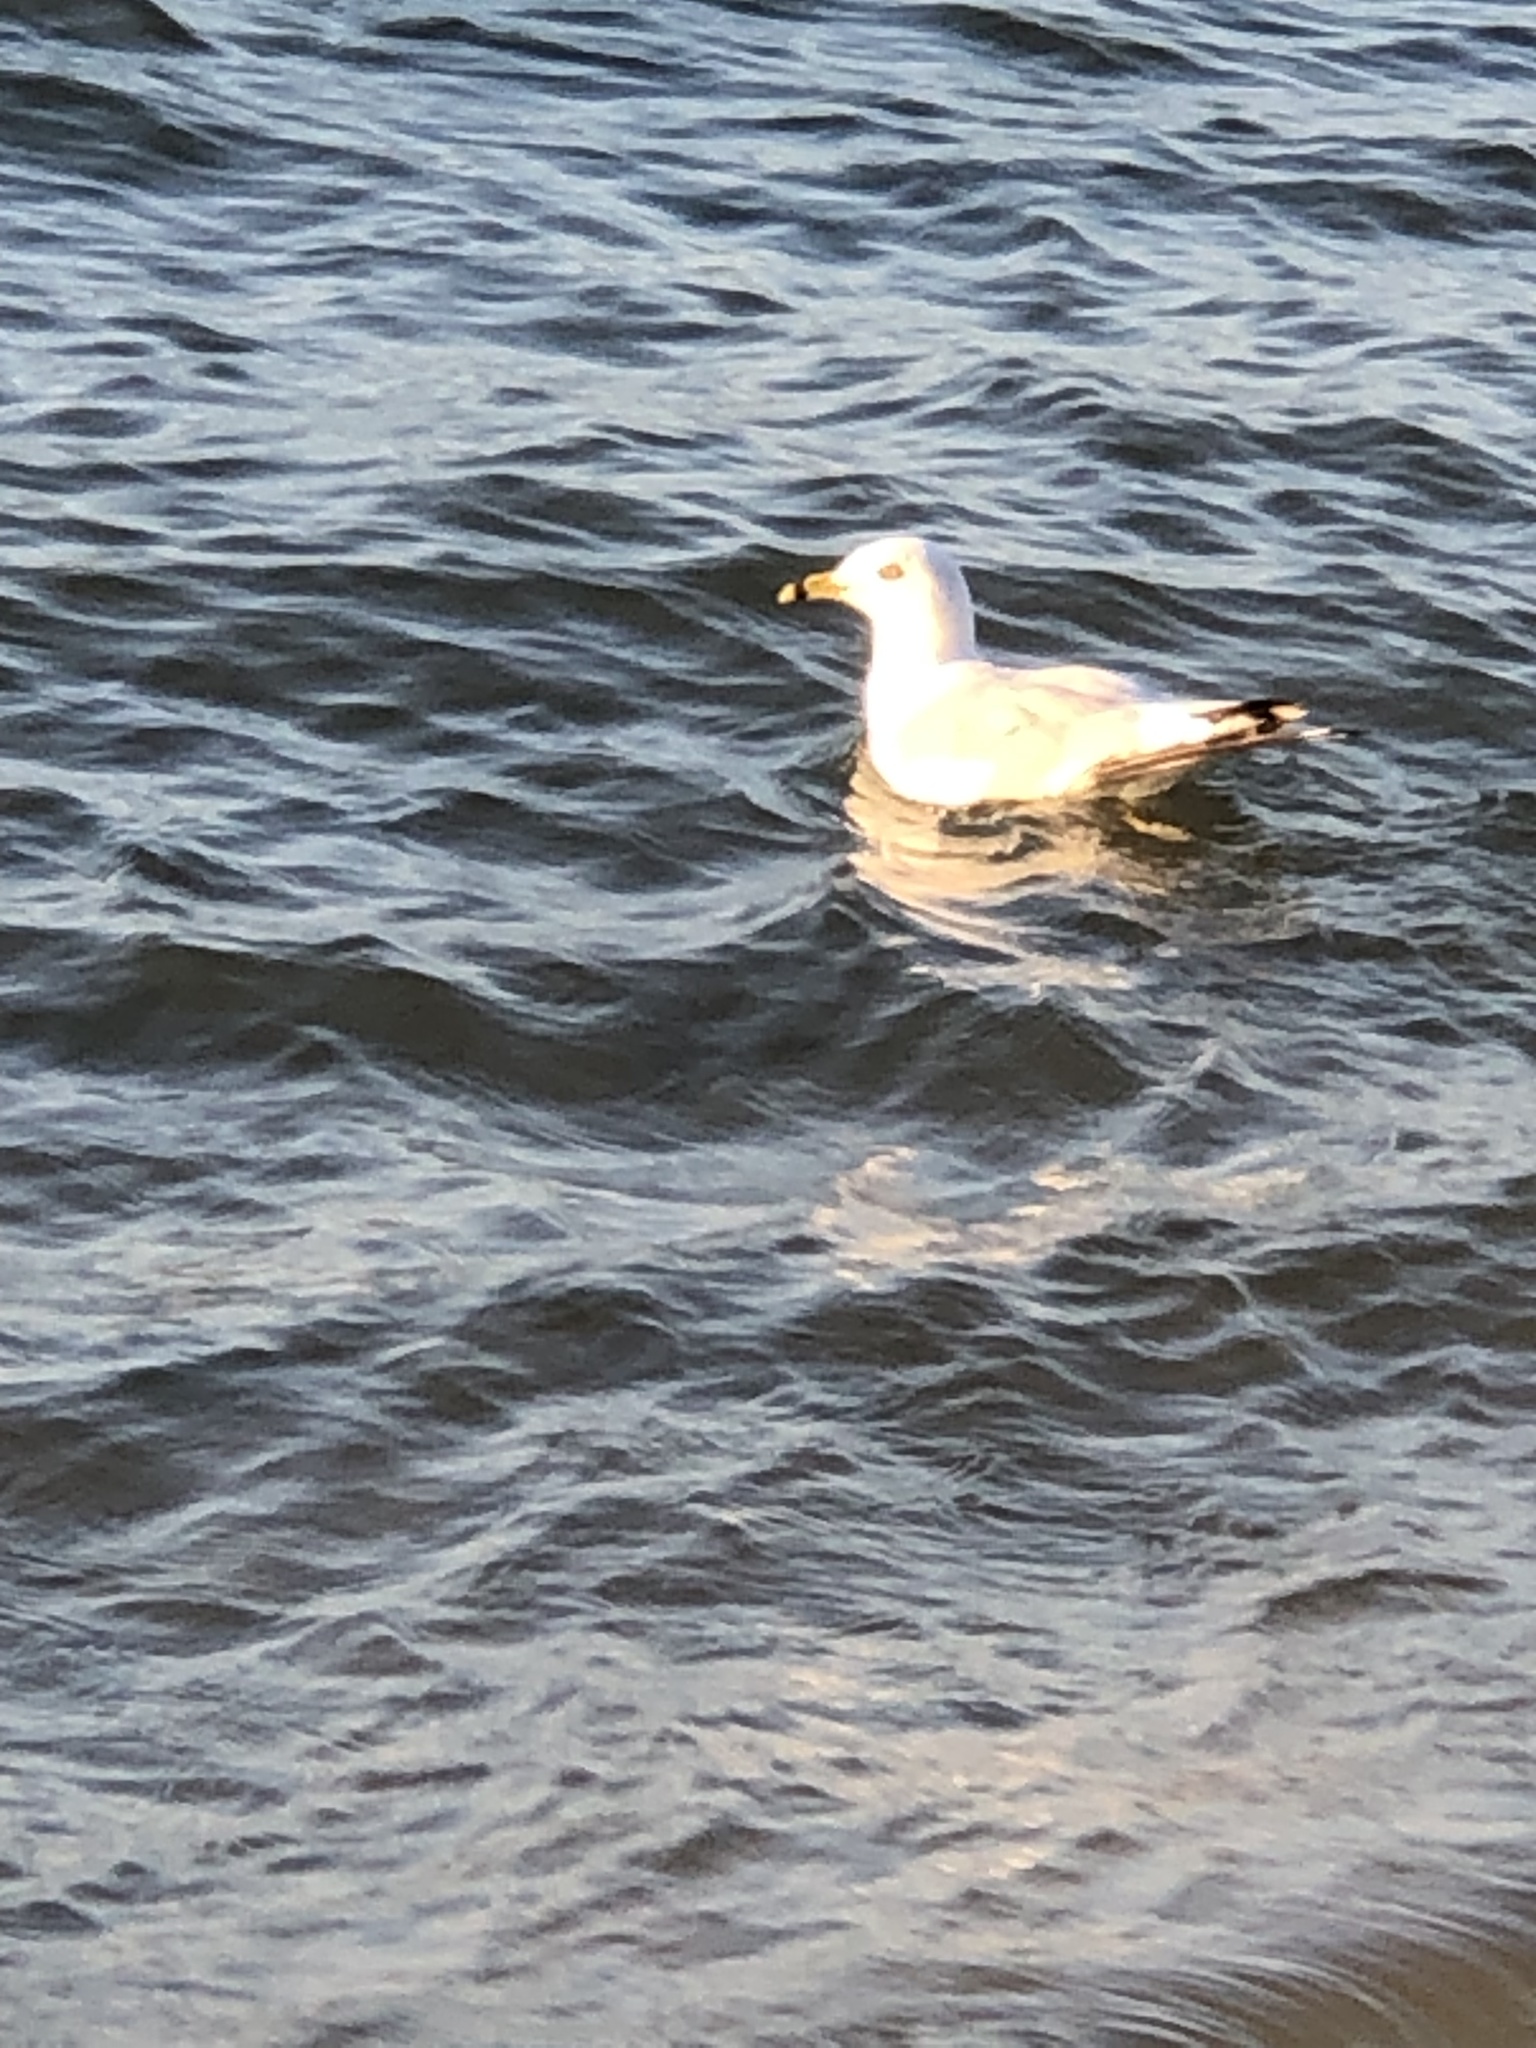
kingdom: Animalia
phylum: Chordata
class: Aves
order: Charadriiformes
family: Laridae
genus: Larus
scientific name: Larus delawarensis
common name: Ring-billed gull
